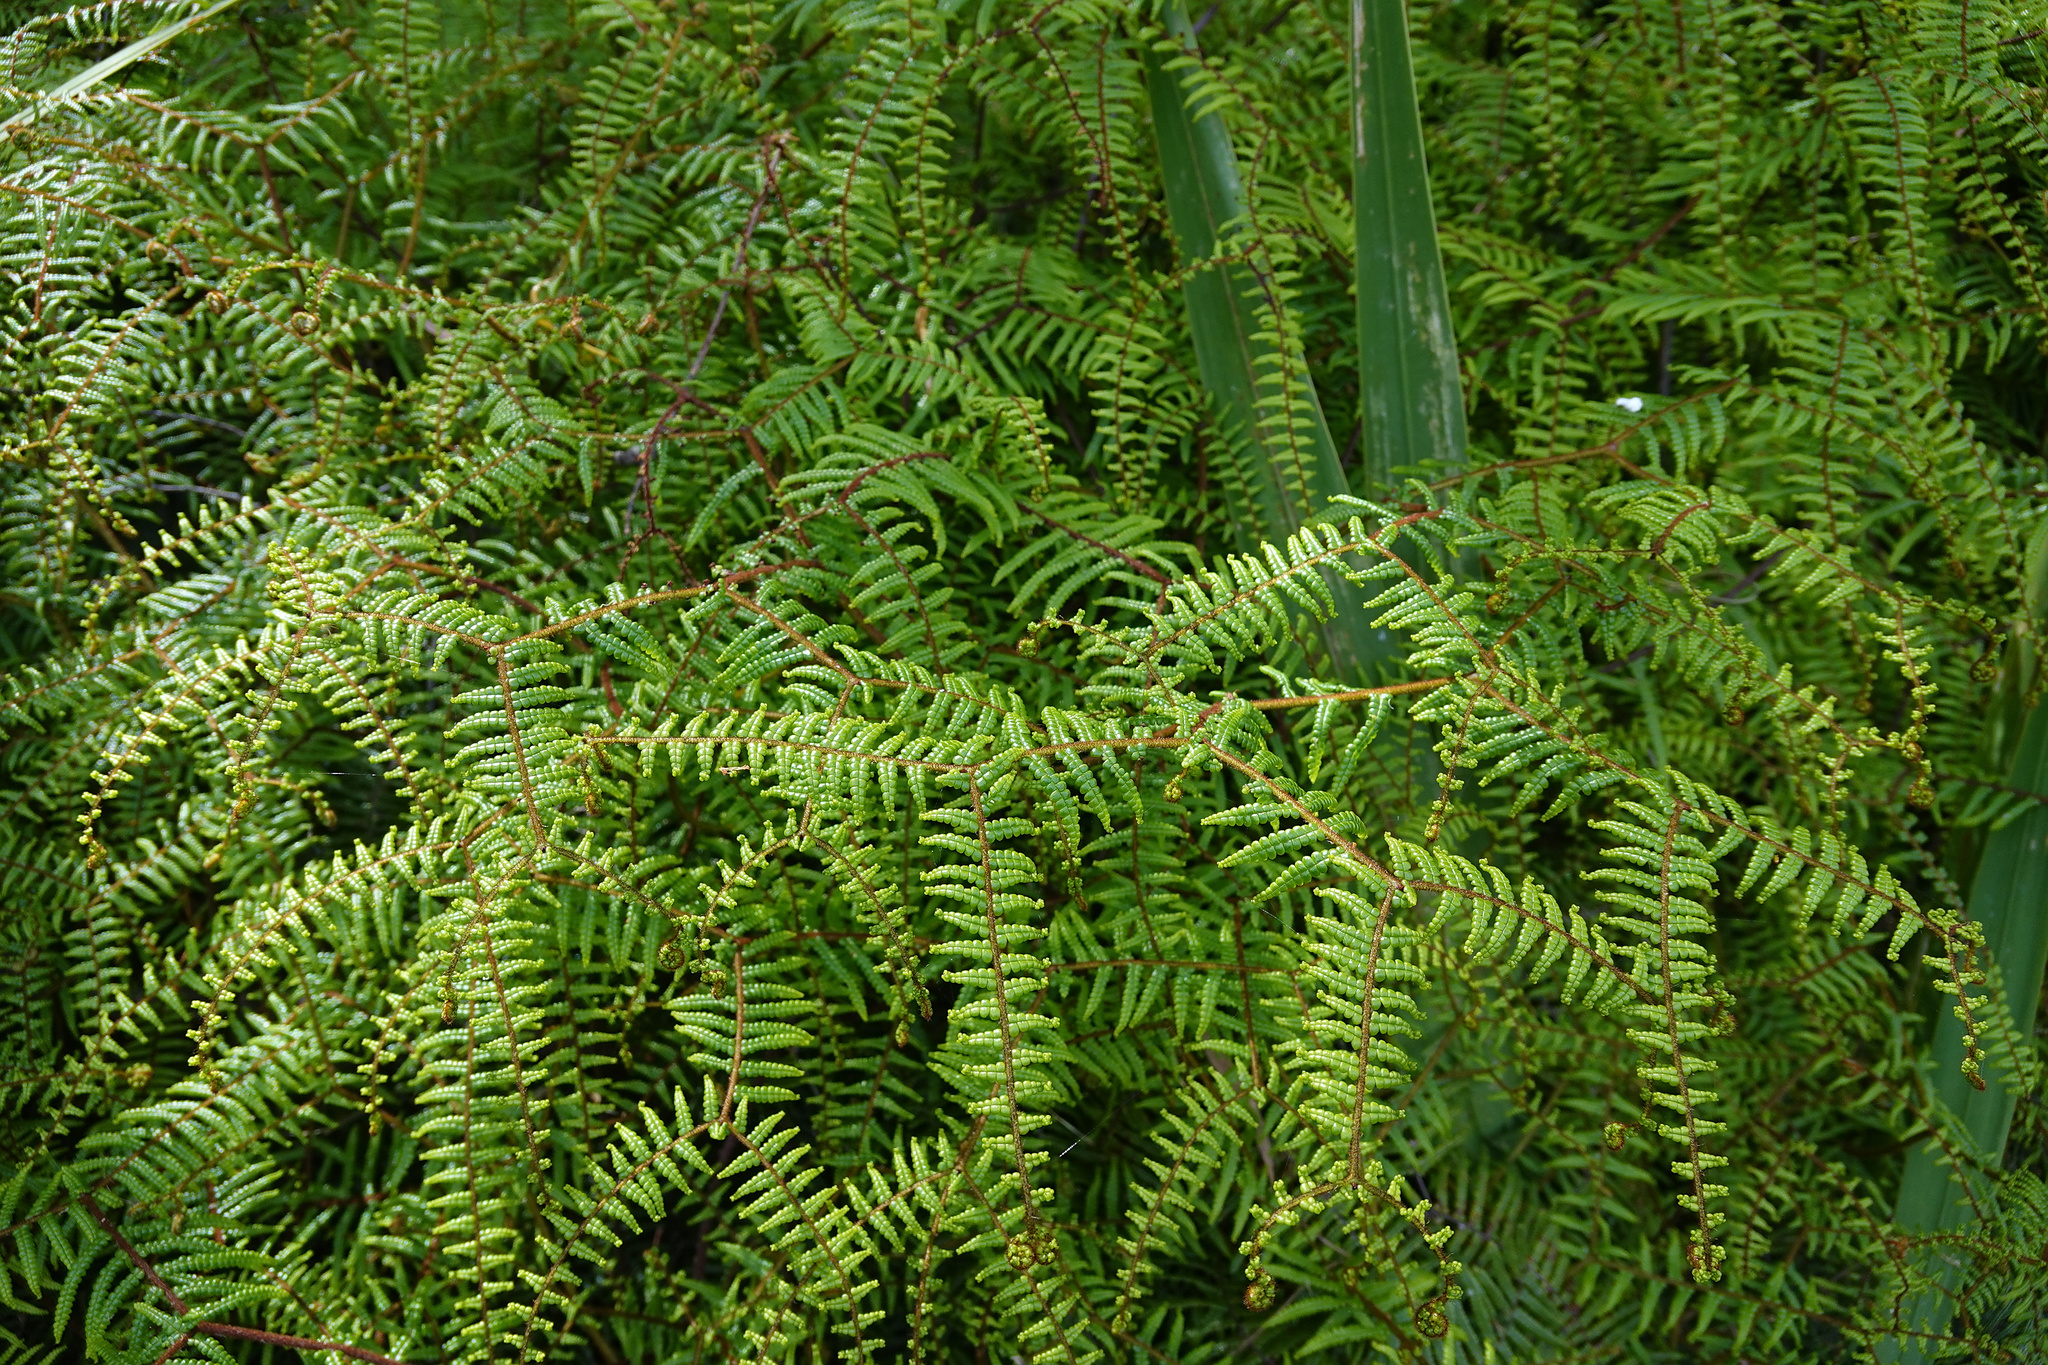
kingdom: Plantae
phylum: Tracheophyta
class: Polypodiopsida
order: Gleicheniales
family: Gleicheniaceae
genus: Gleichenia
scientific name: Gleichenia microphylla
